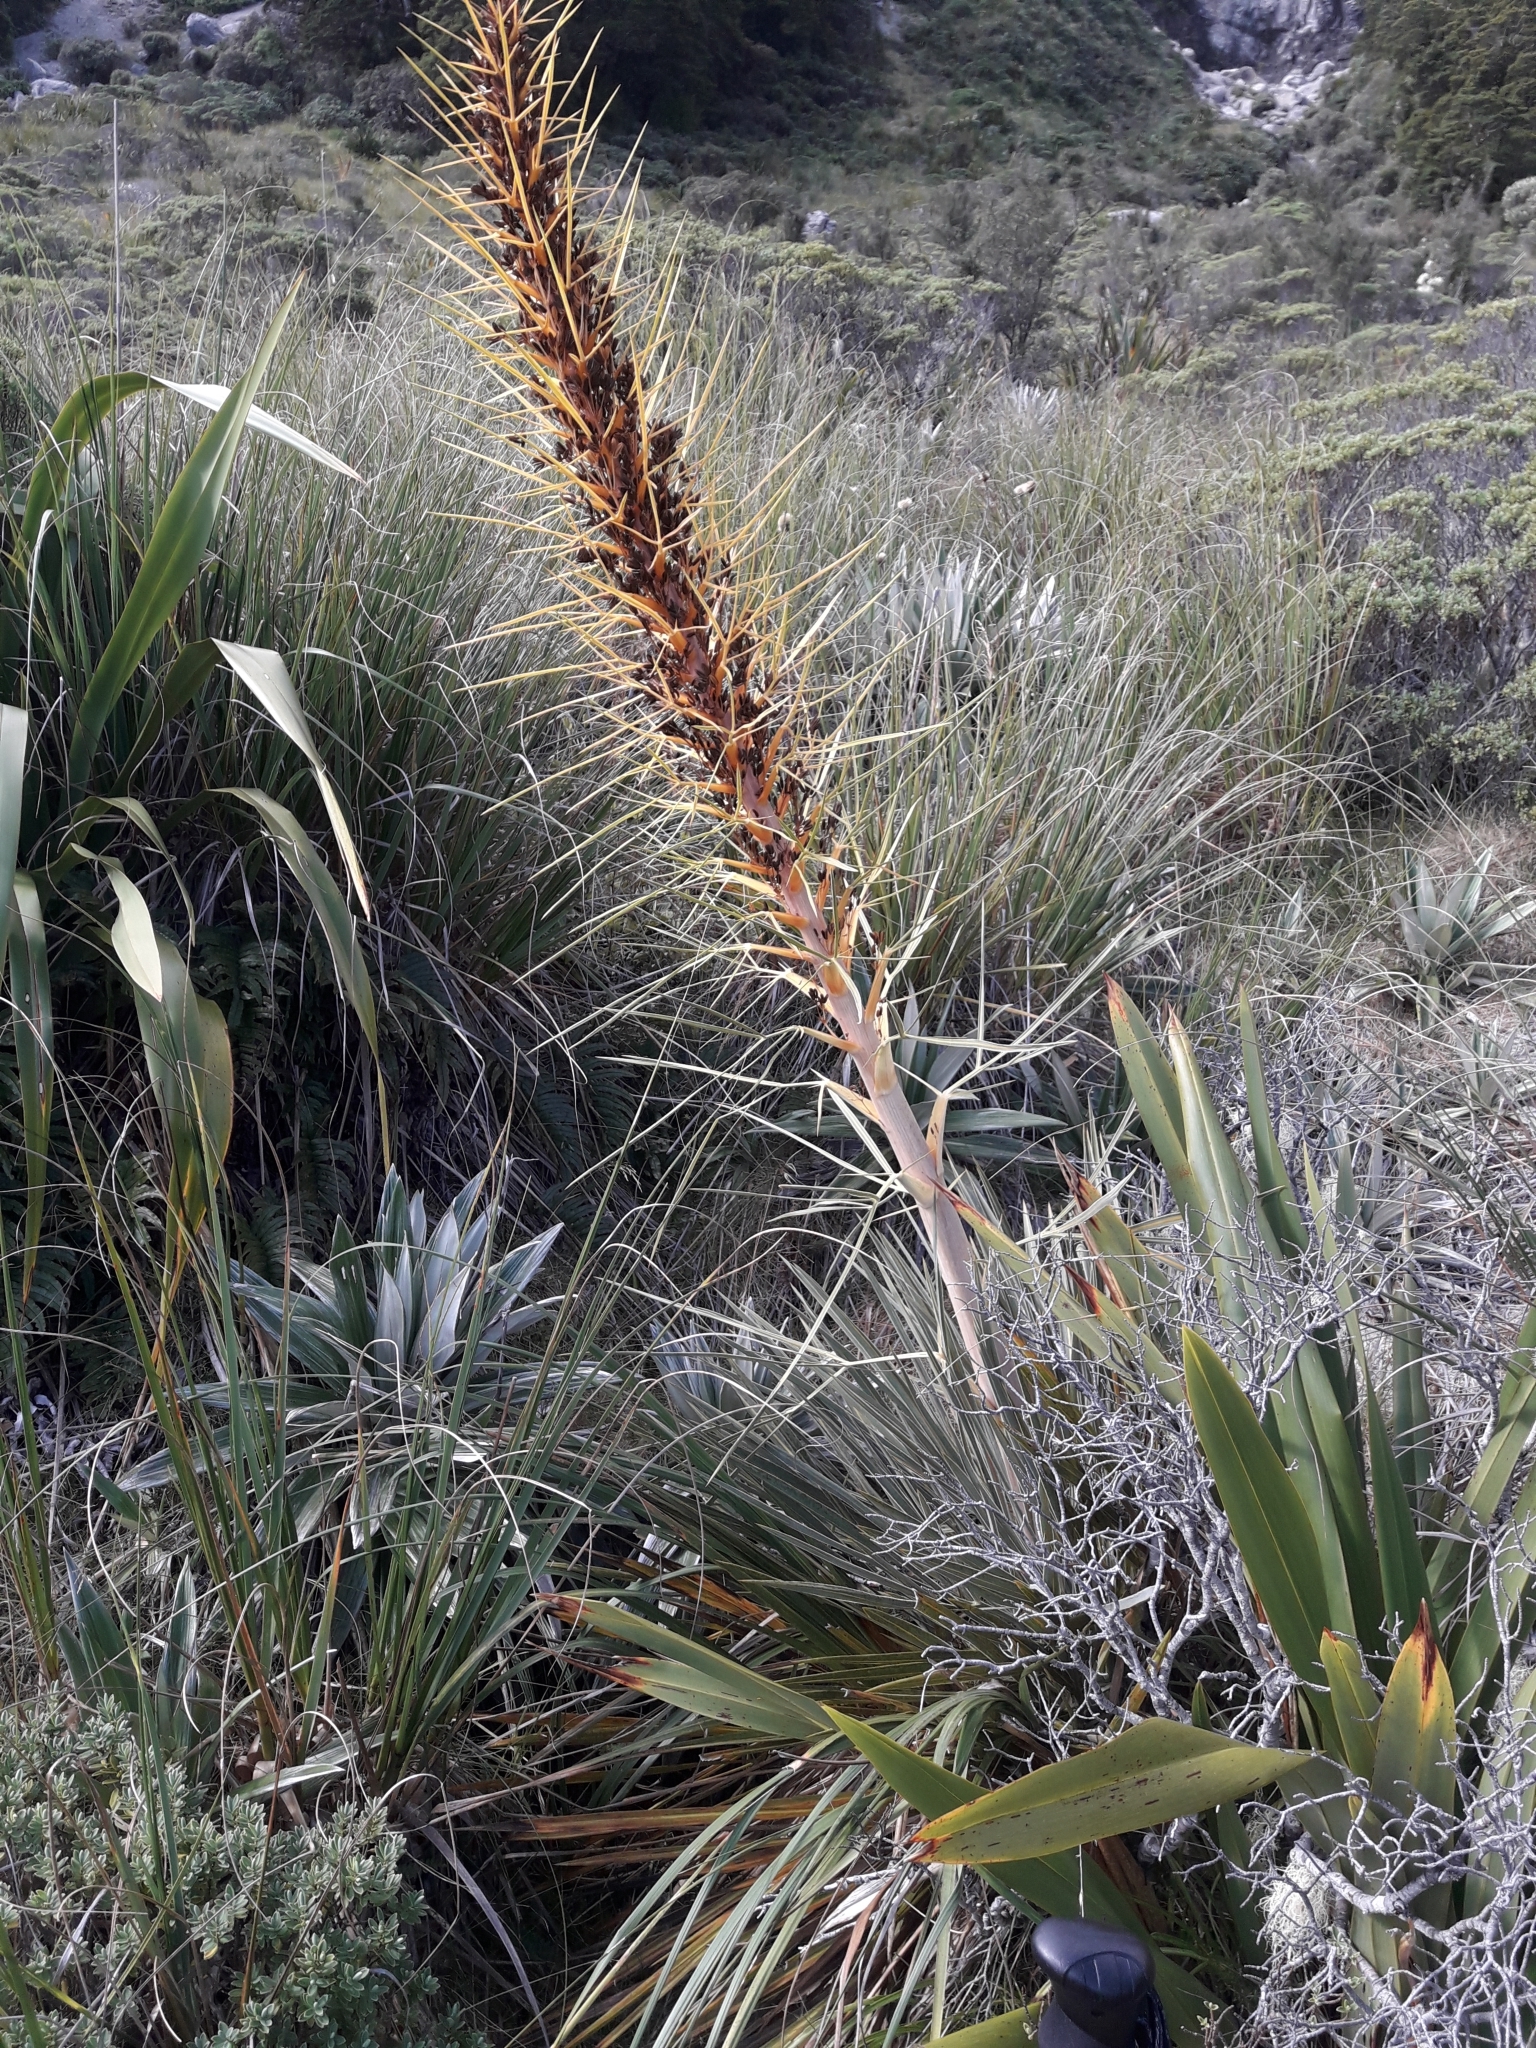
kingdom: Plantae
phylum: Tracheophyta
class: Magnoliopsida
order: Apiales
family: Apiaceae
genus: Aciphylla
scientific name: Aciphylla colensoi
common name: Colenso's spaniard
